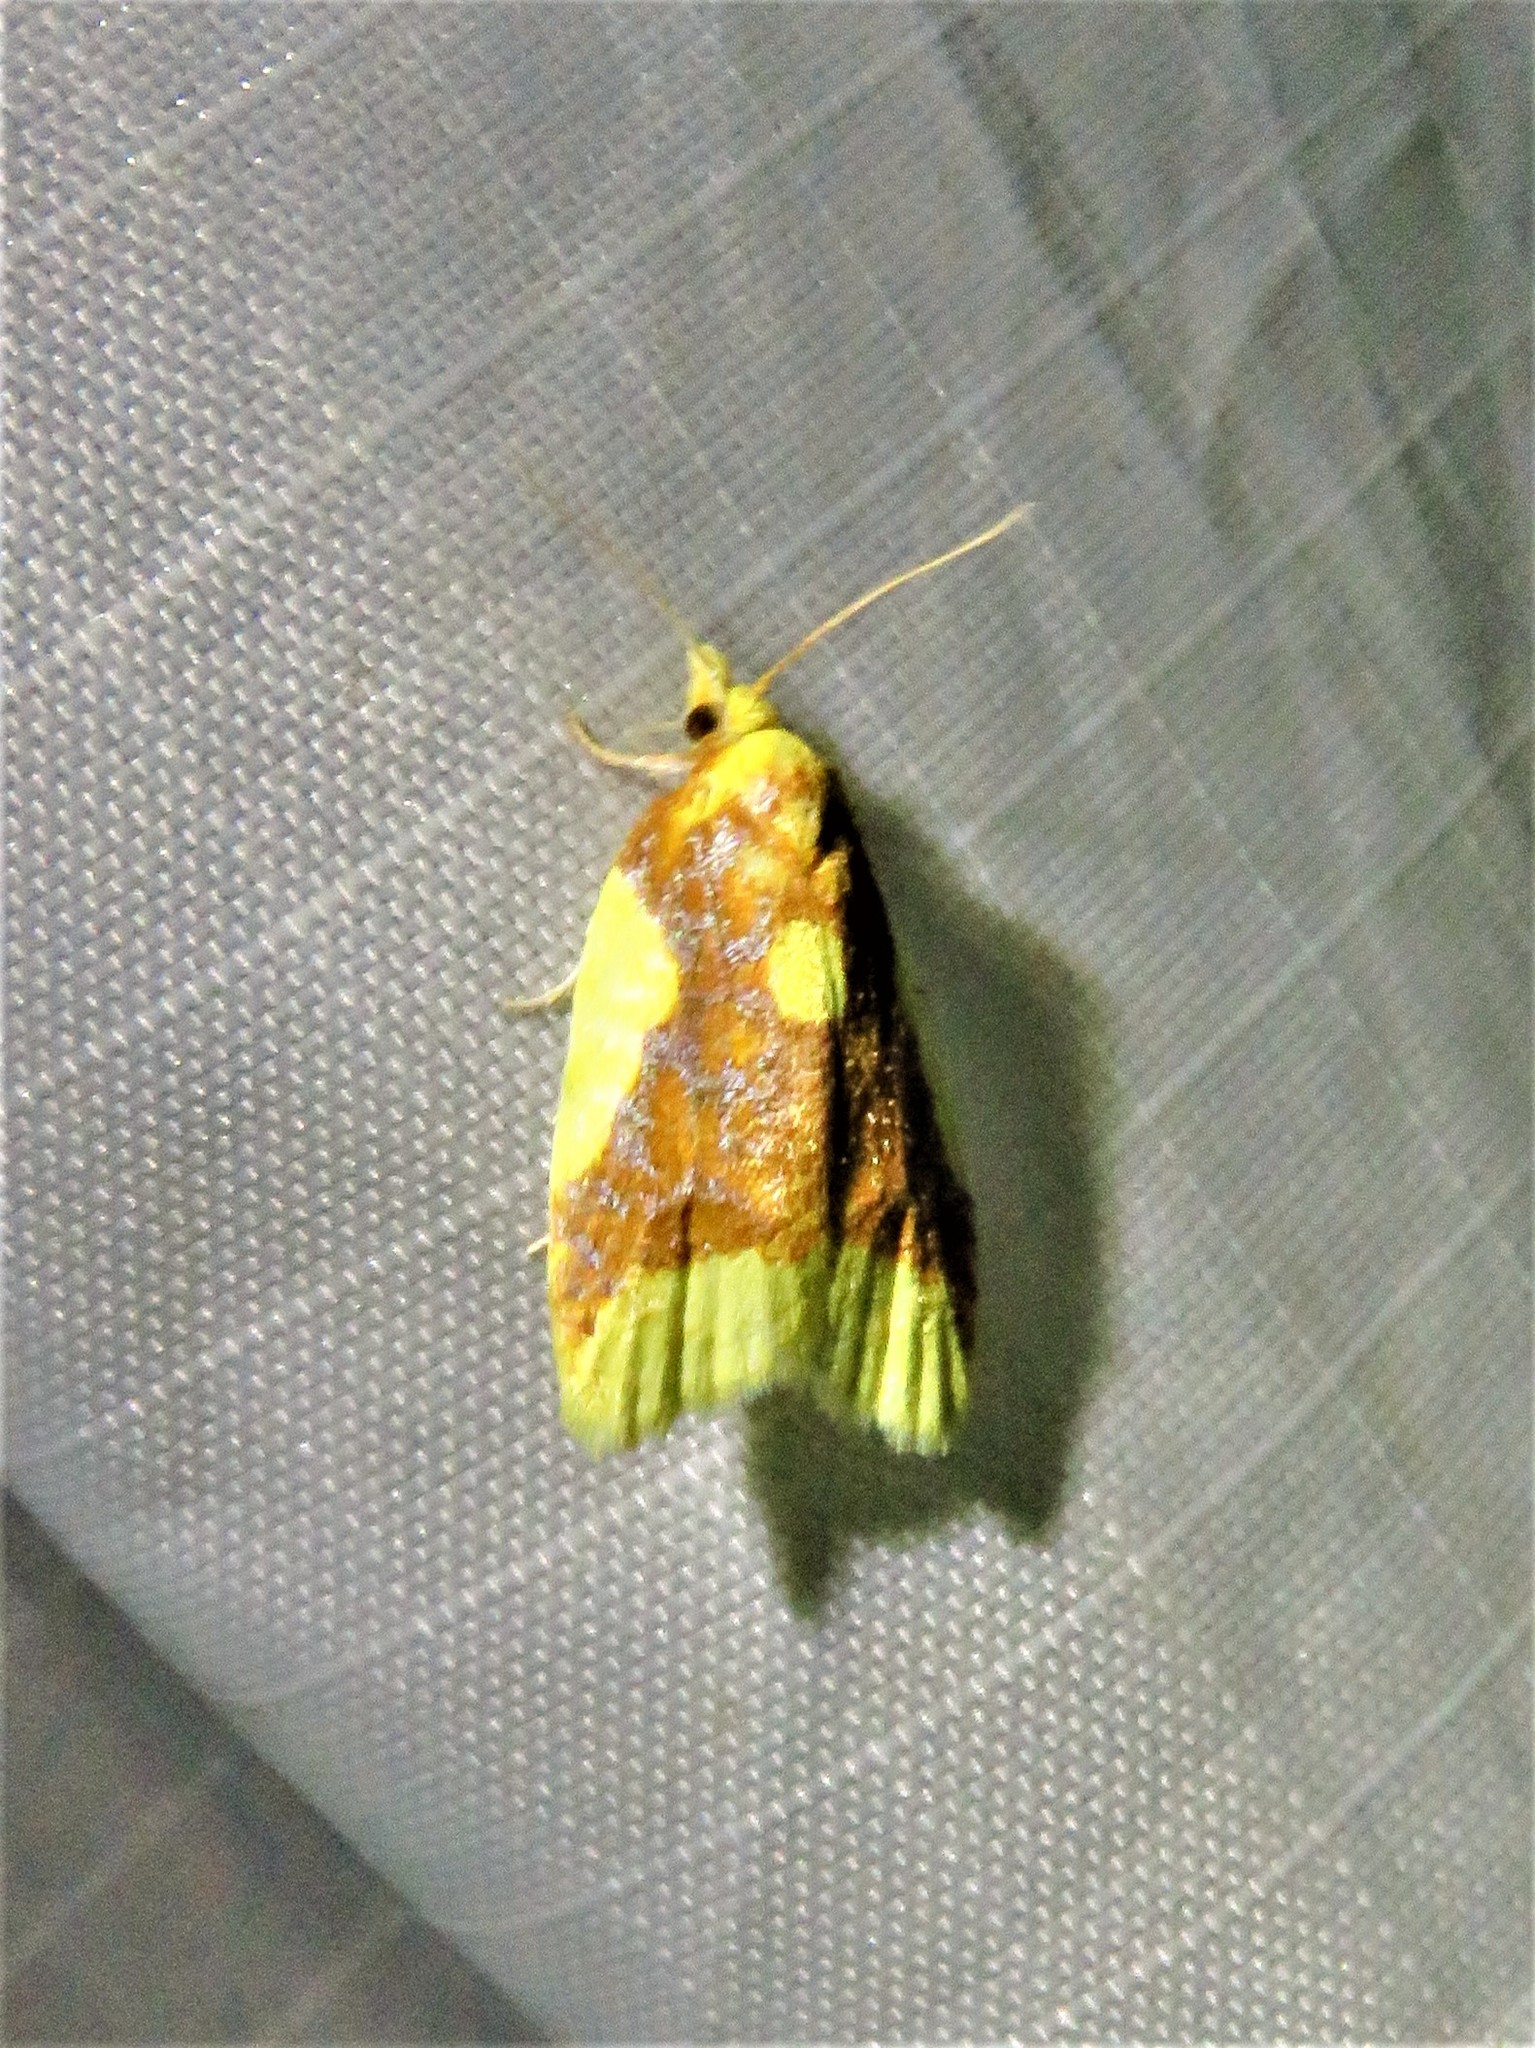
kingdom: Animalia
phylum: Arthropoda
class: Insecta
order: Lepidoptera
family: Tortricidae
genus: Sparganothis
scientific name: Sparganothis pulcherrimana
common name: Beautiful sparganothis
